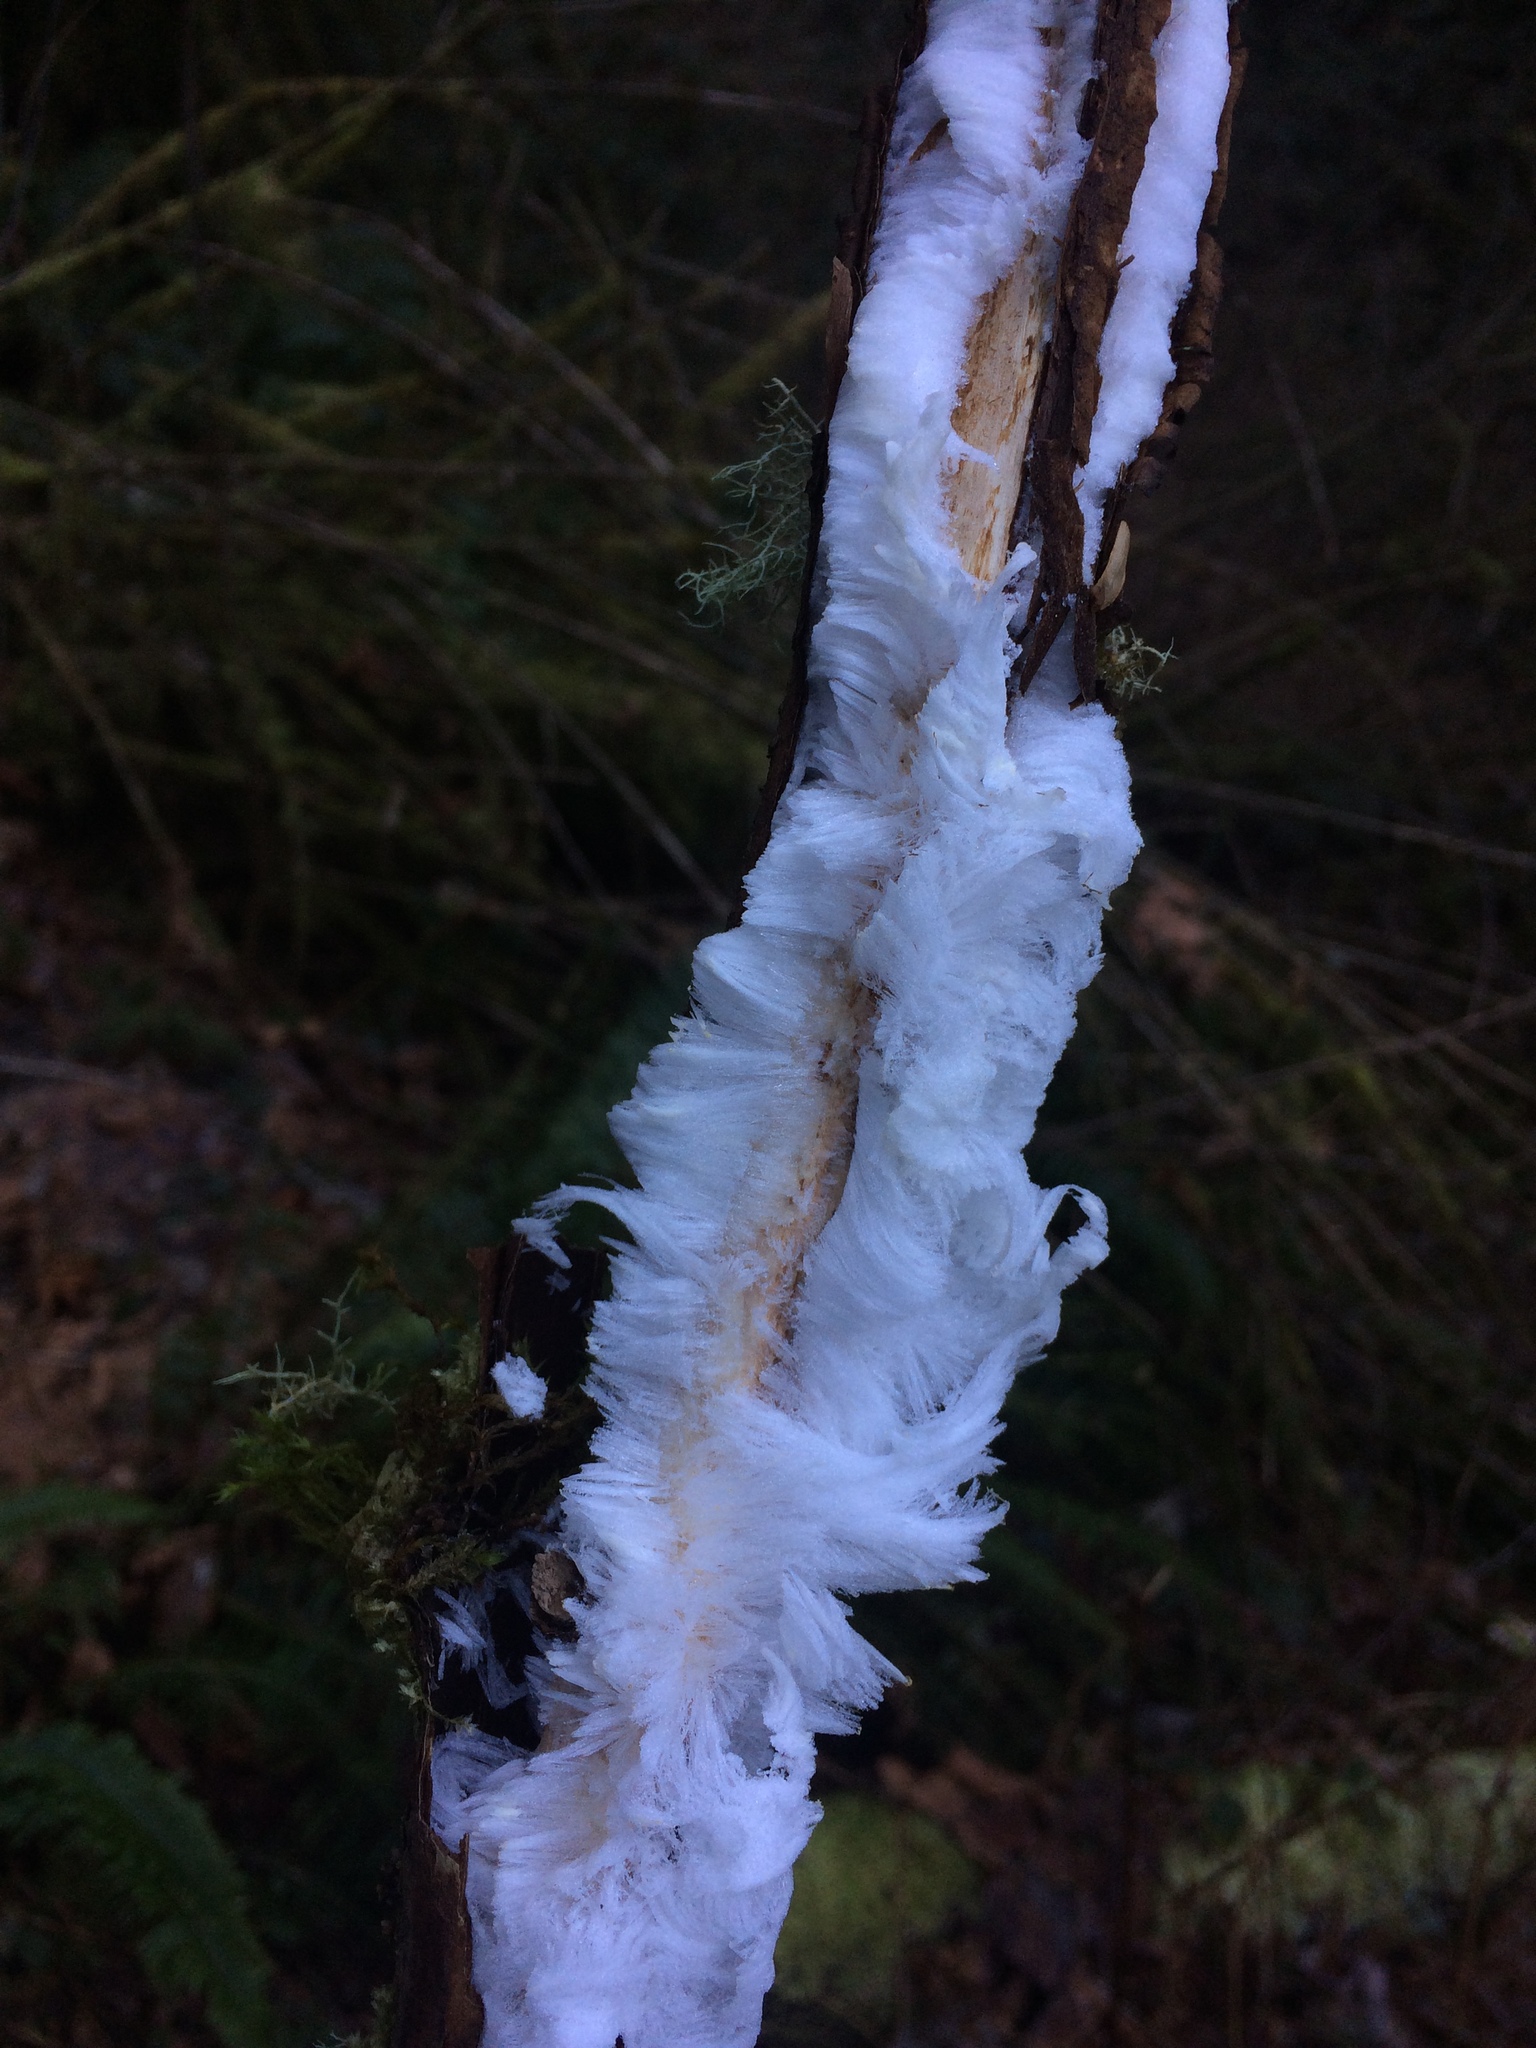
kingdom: Fungi
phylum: Basidiomycota
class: Agaricomycetes
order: Auriculariales
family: Auriculariaceae
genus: Exidiopsis
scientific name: Exidiopsis effusa
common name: Hair ice crust
